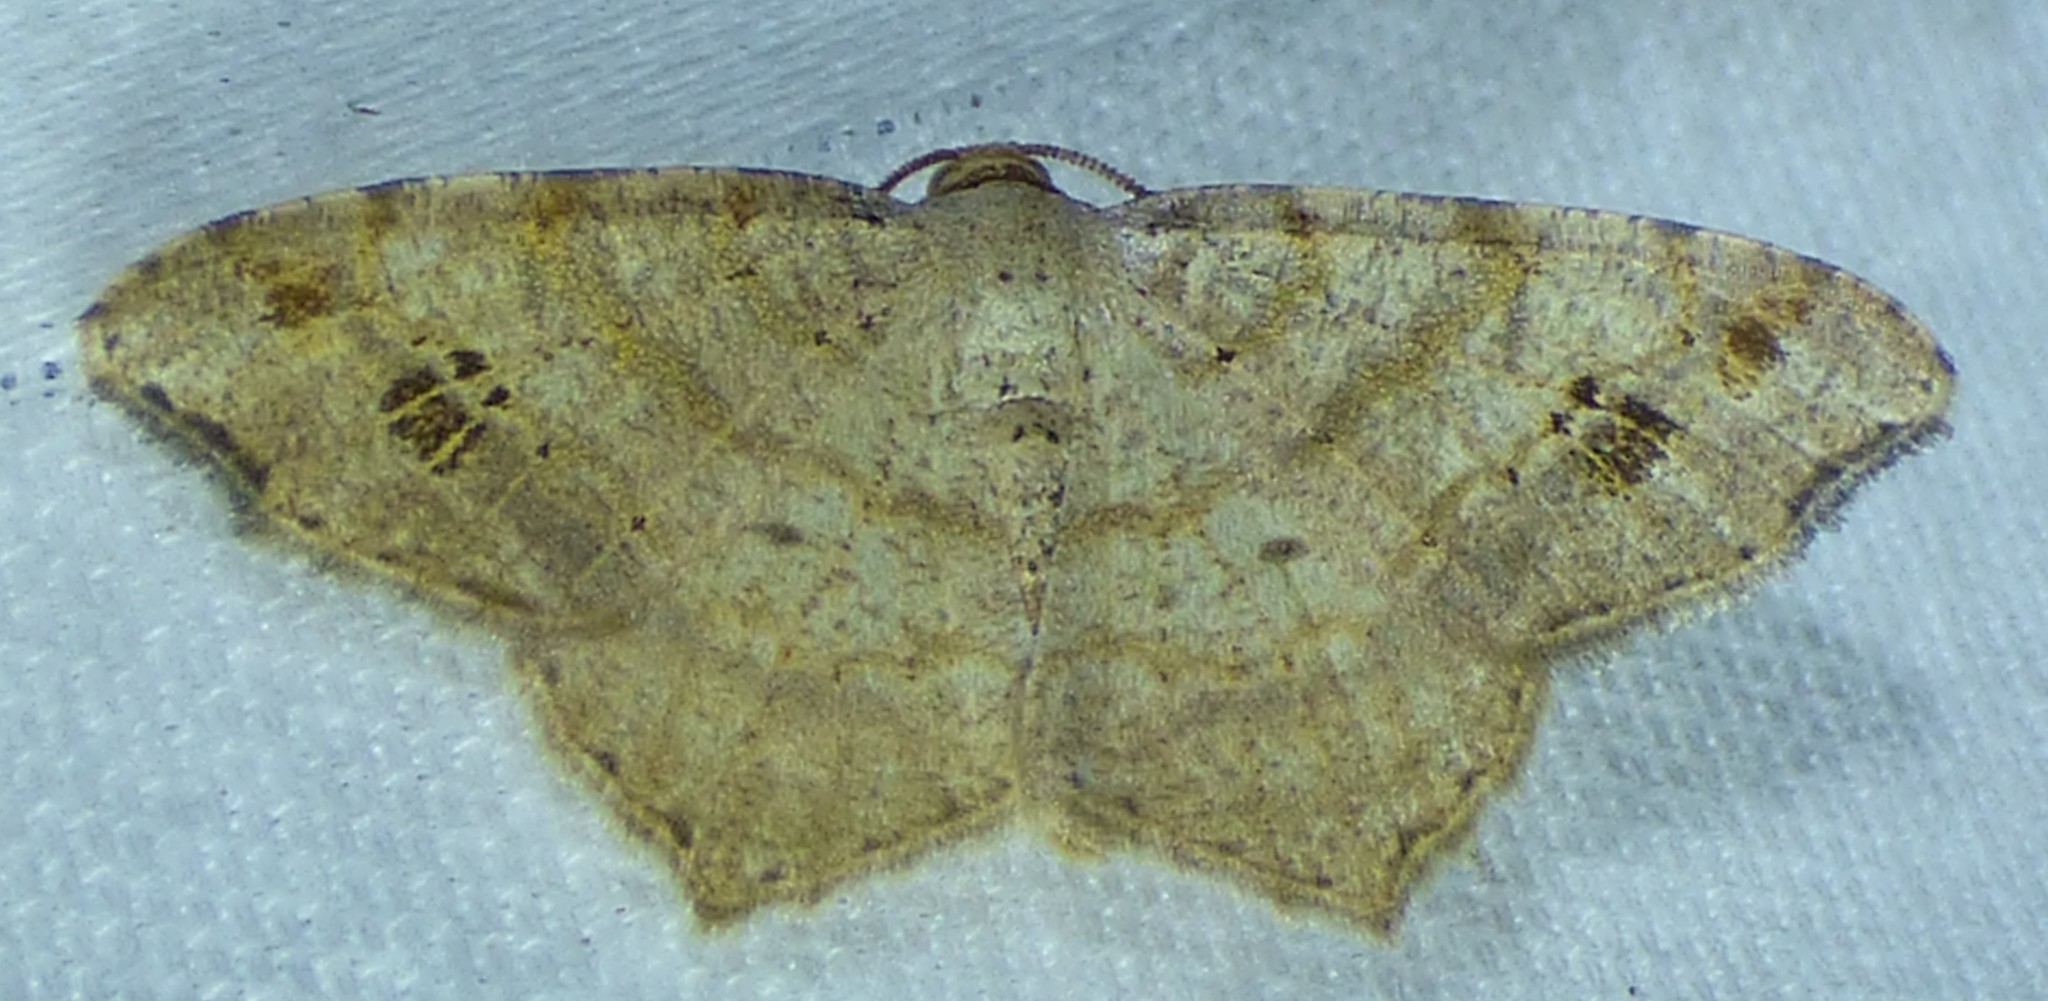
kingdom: Animalia
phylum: Arthropoda
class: Insecta
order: Lepidoptera
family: Geometridae
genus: Macaria
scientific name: Macaria aemulataria
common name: Common angle
